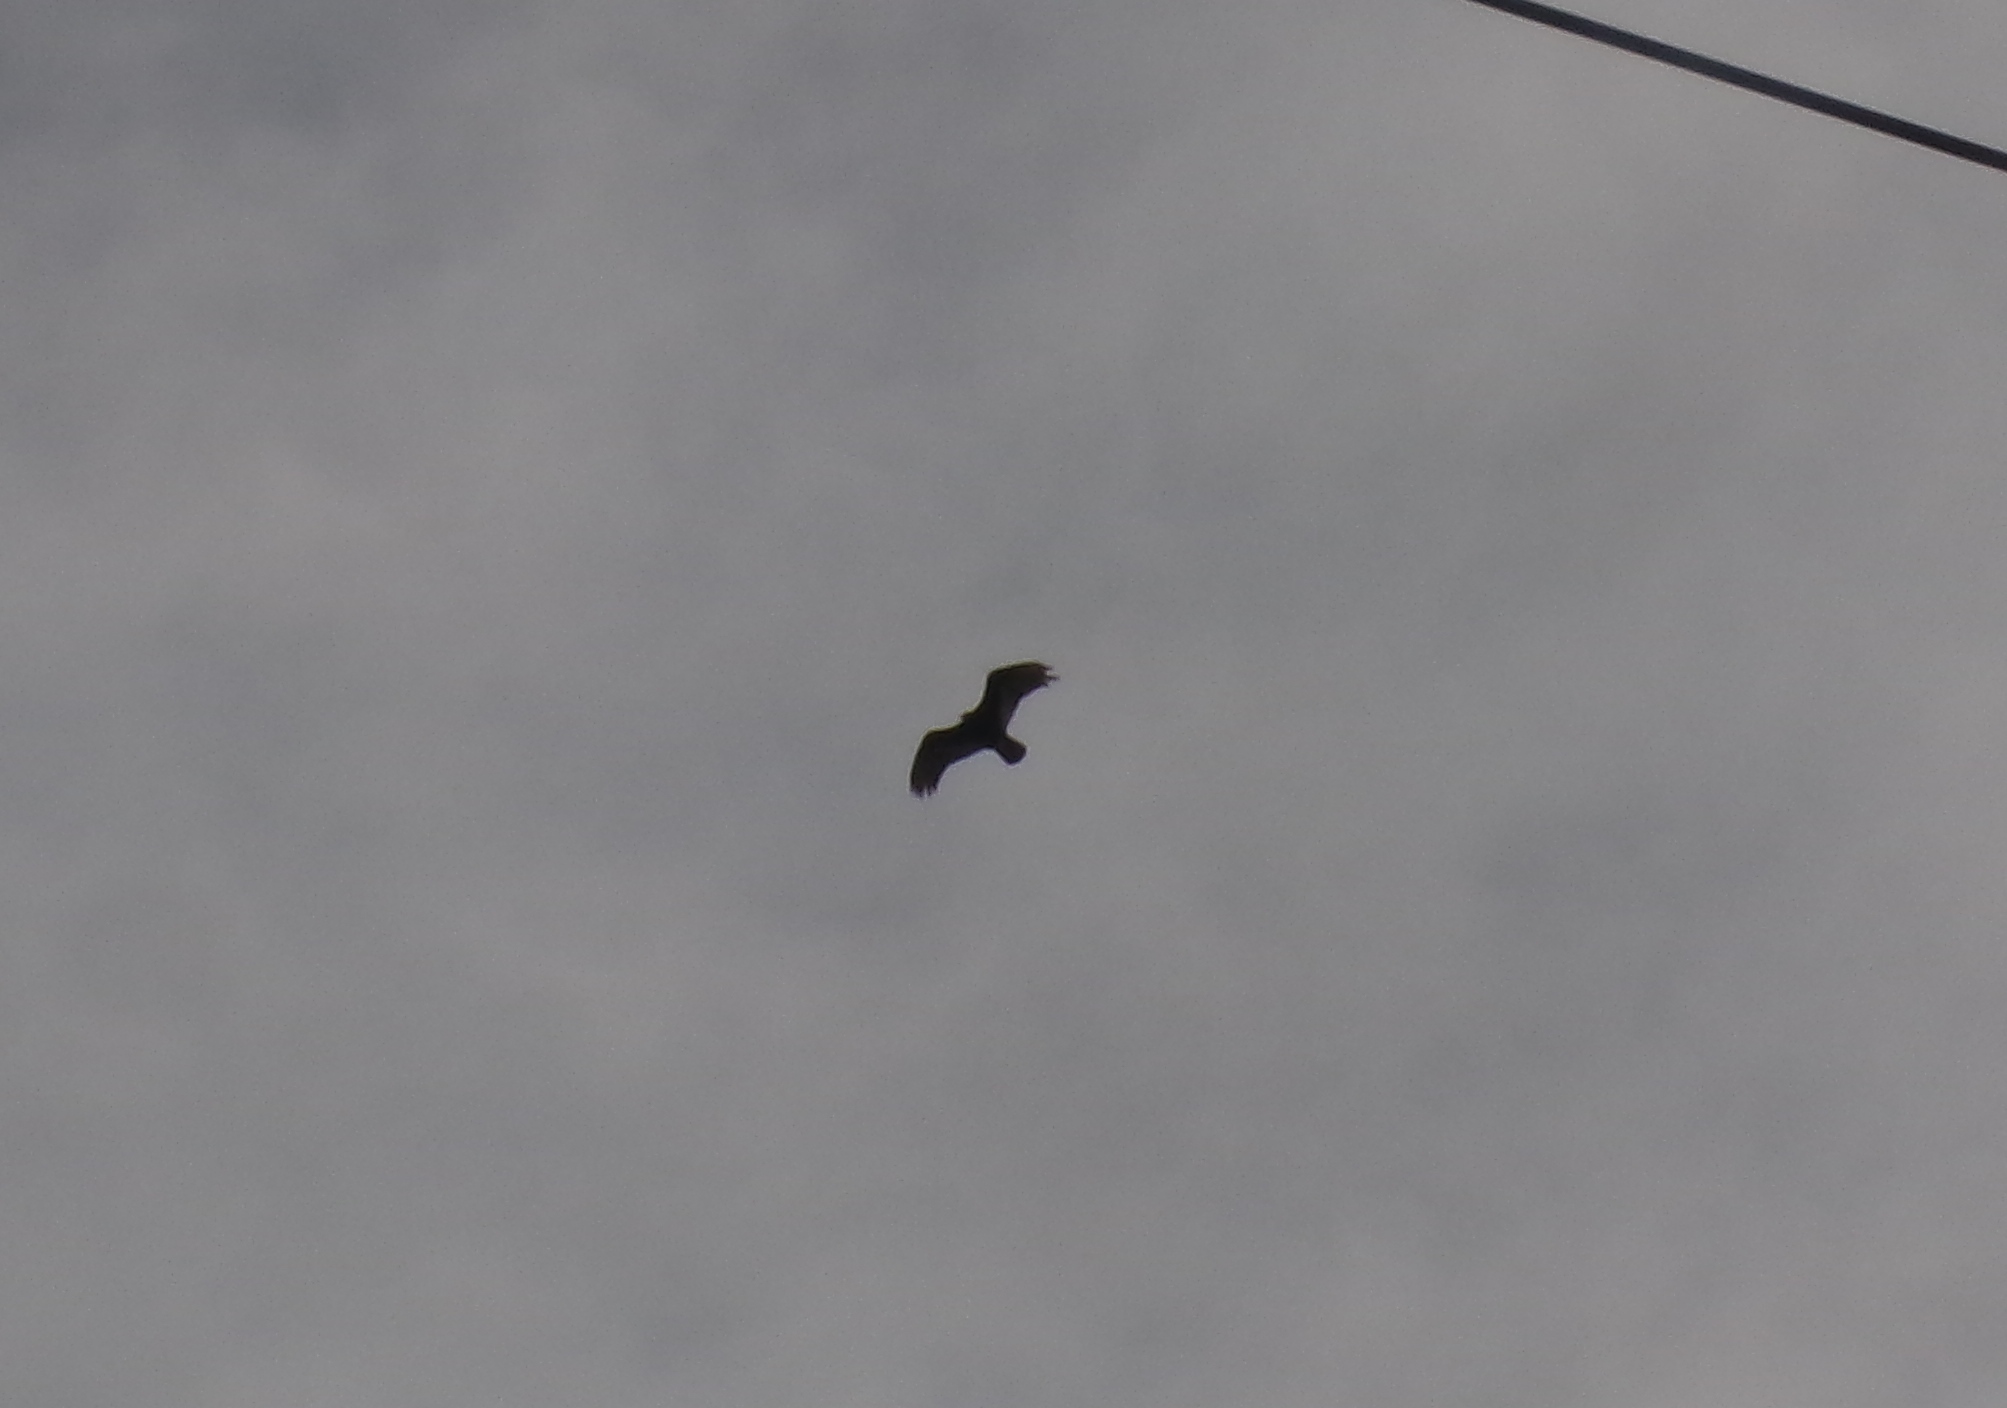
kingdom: Animalia
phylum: Chordata
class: Aves
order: Accipitriformes
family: Cathartidae
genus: Cathartes
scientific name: Cathartes aura
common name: Turkey vulture
